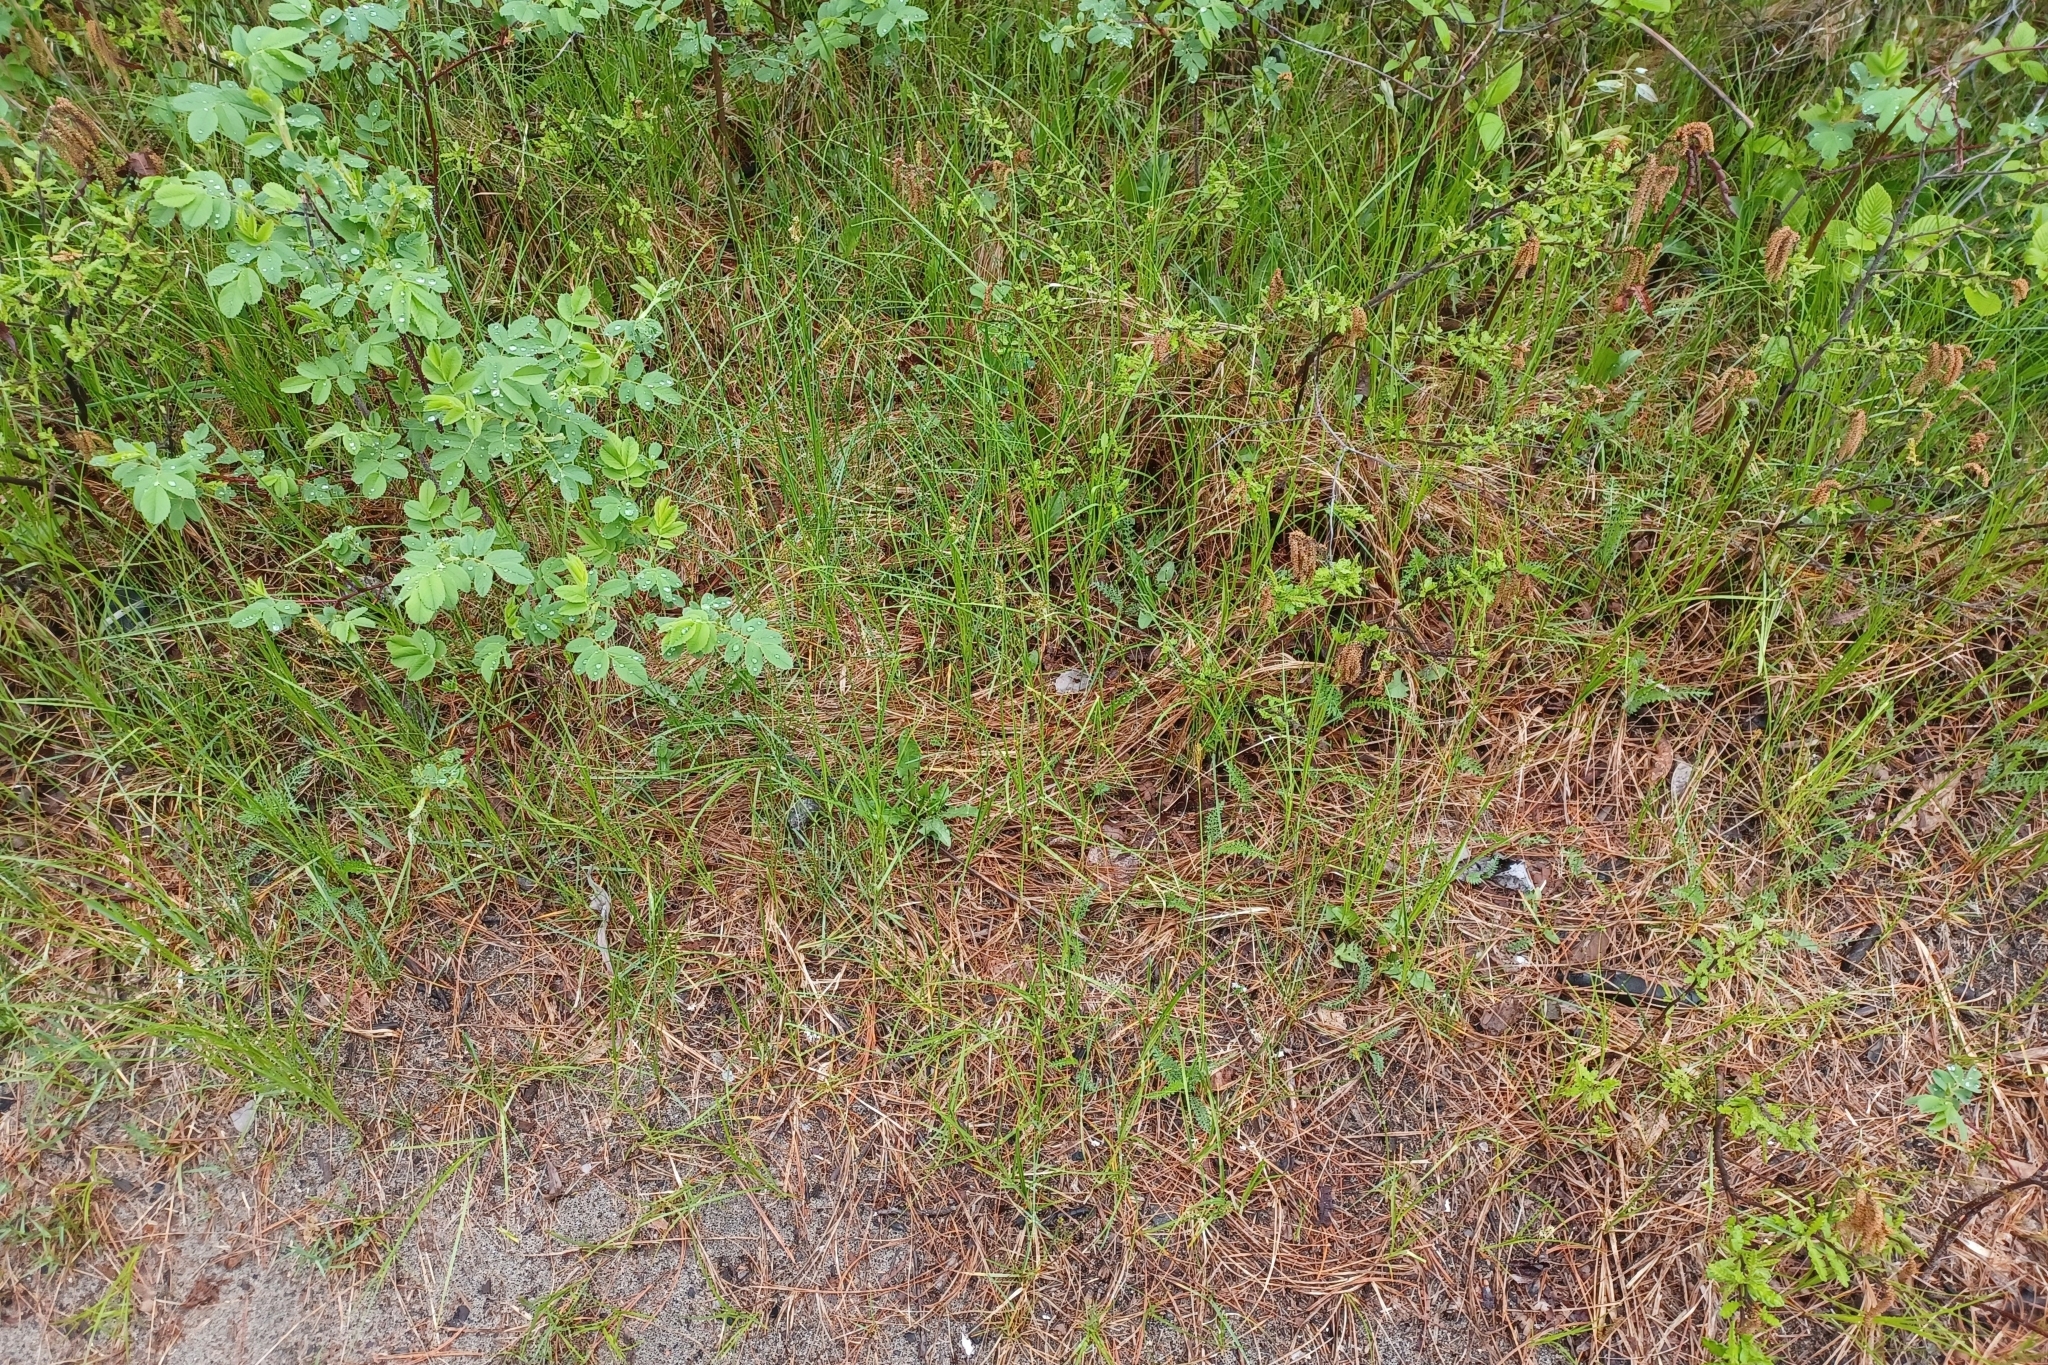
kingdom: Plantae
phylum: Tracheophyta
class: Liliopsida
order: Poales
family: Cyperaceae
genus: Carex
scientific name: Carex siccata
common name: Dry sedge
